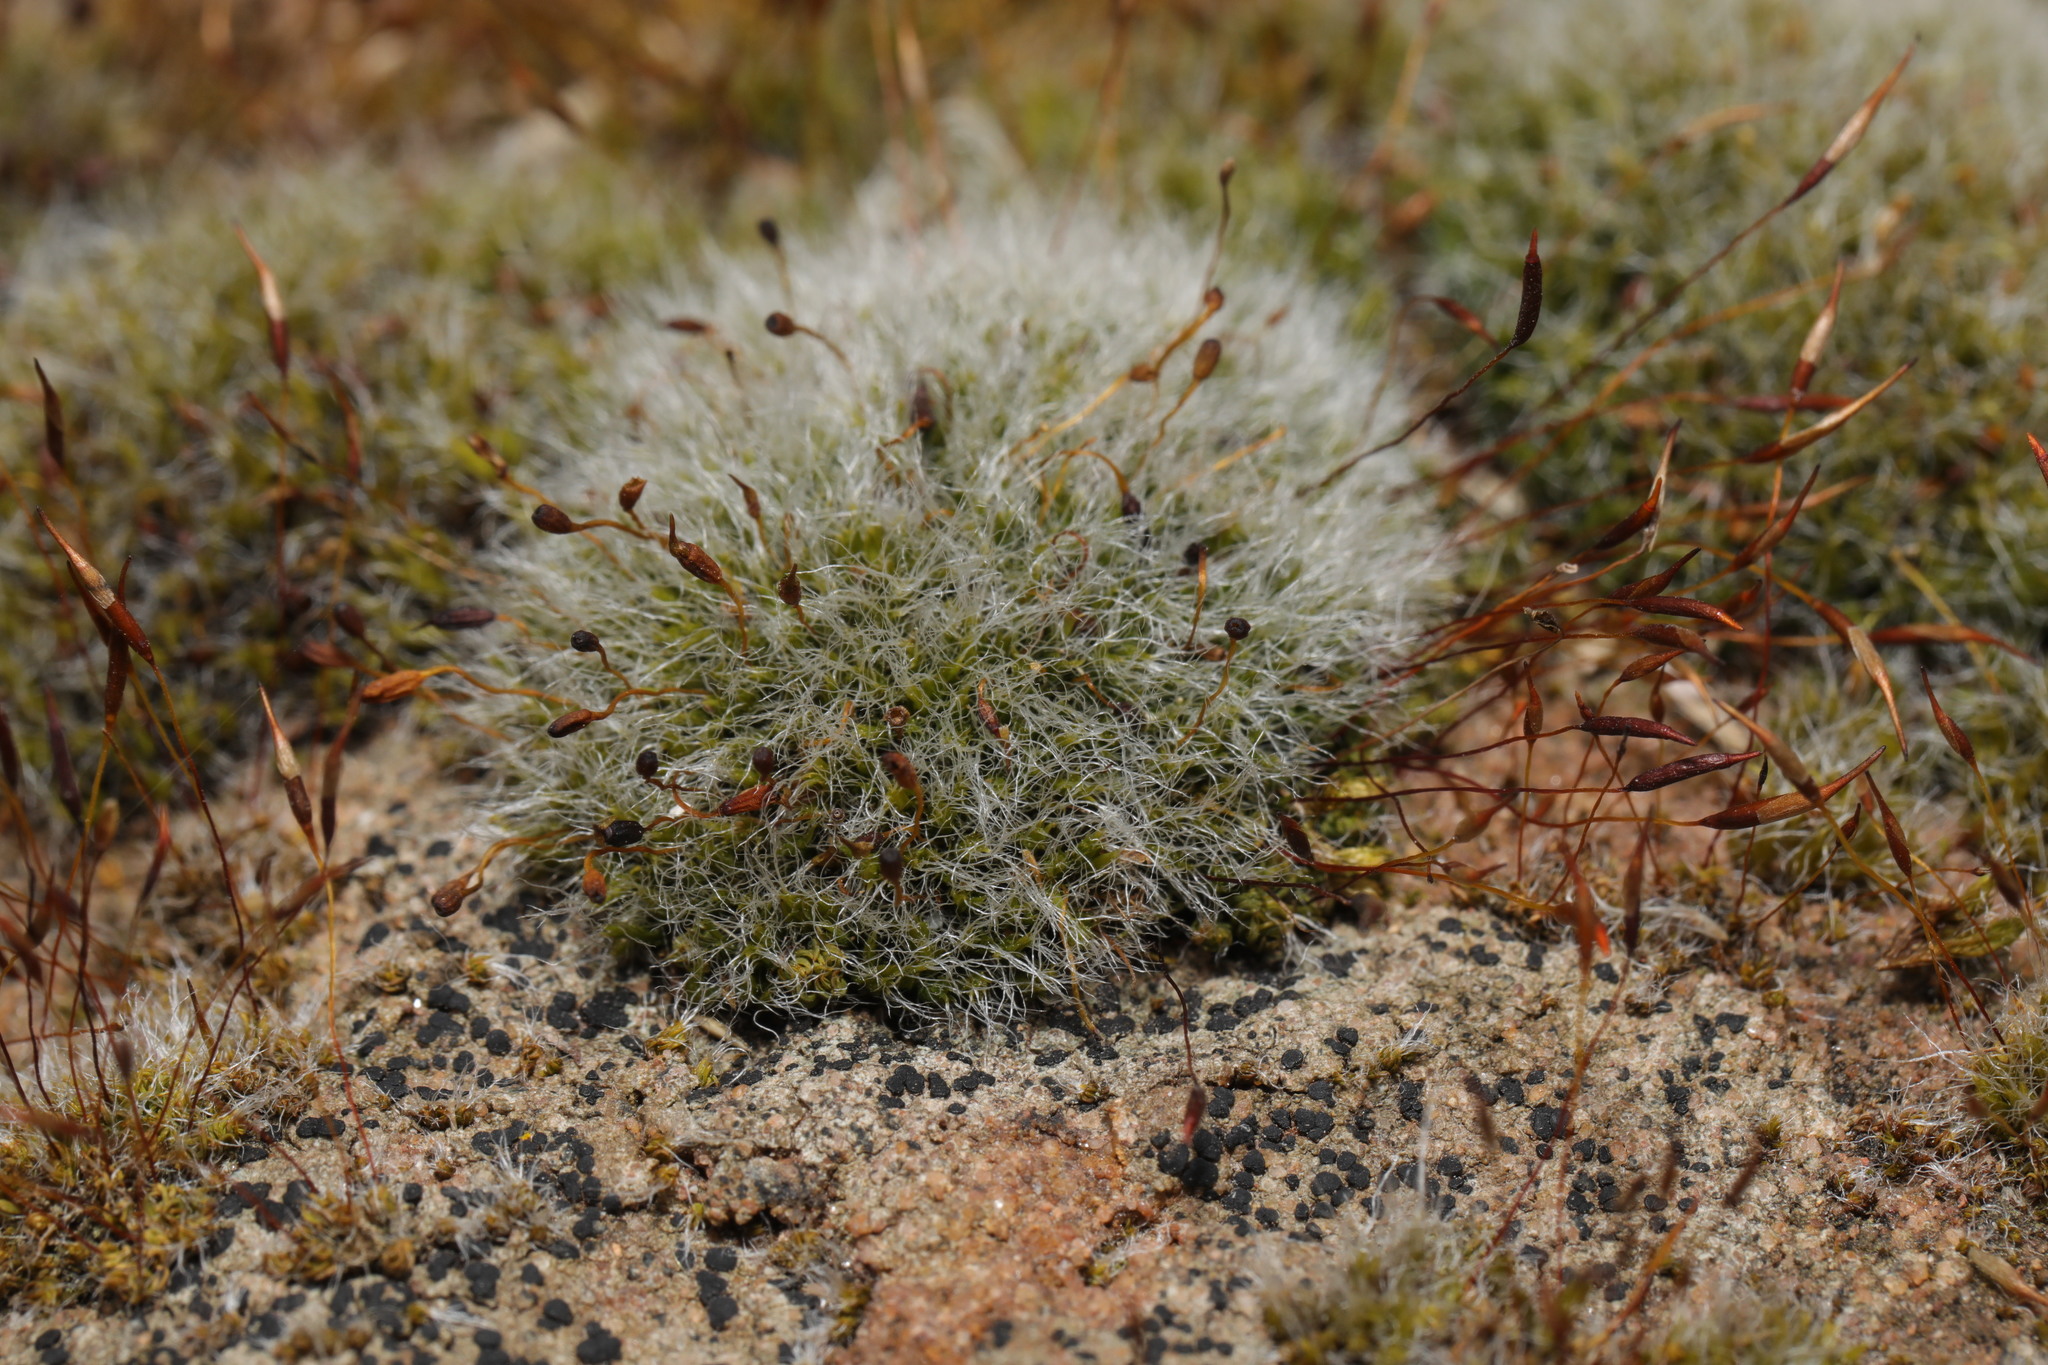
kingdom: Plantae
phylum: Bryophyta
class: Bryopsida
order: Grimmiales
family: Grimmiaceae
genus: Grimmia
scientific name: Grimmia pulvinata
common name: Grey-cushioned grimmia
